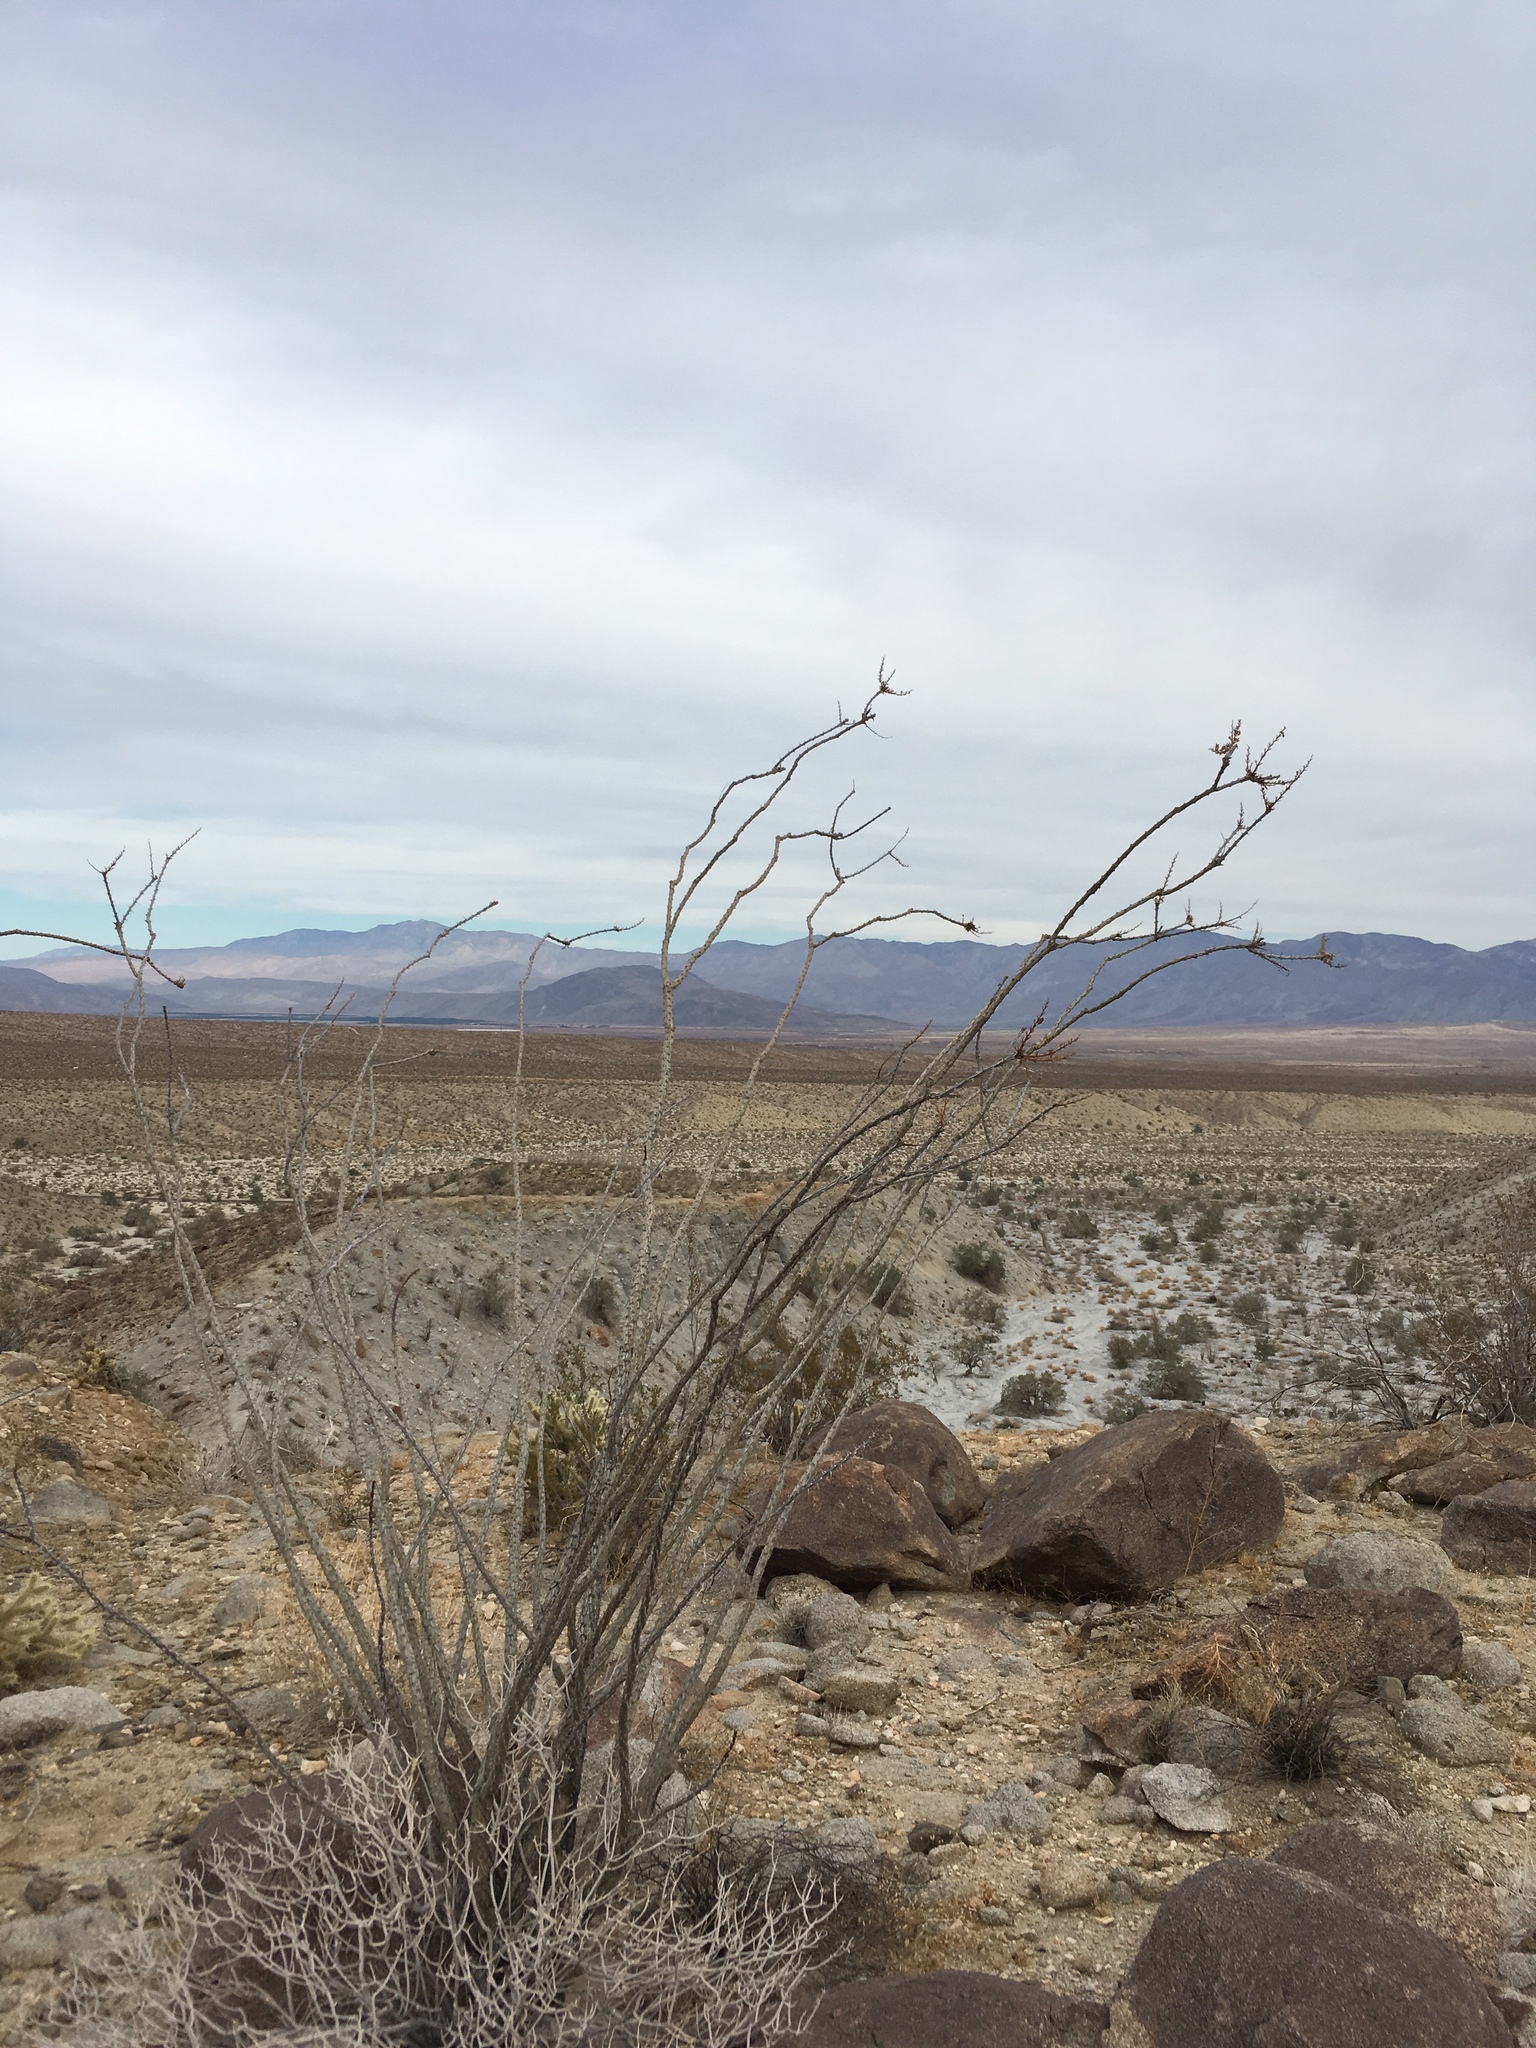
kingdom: Plantae
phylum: Tracheophyta
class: Magnoliopsida
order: Ericales
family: Fouquieriaceae
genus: Fouquieria
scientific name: Fouquieria splendens
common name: Vine-cactus
